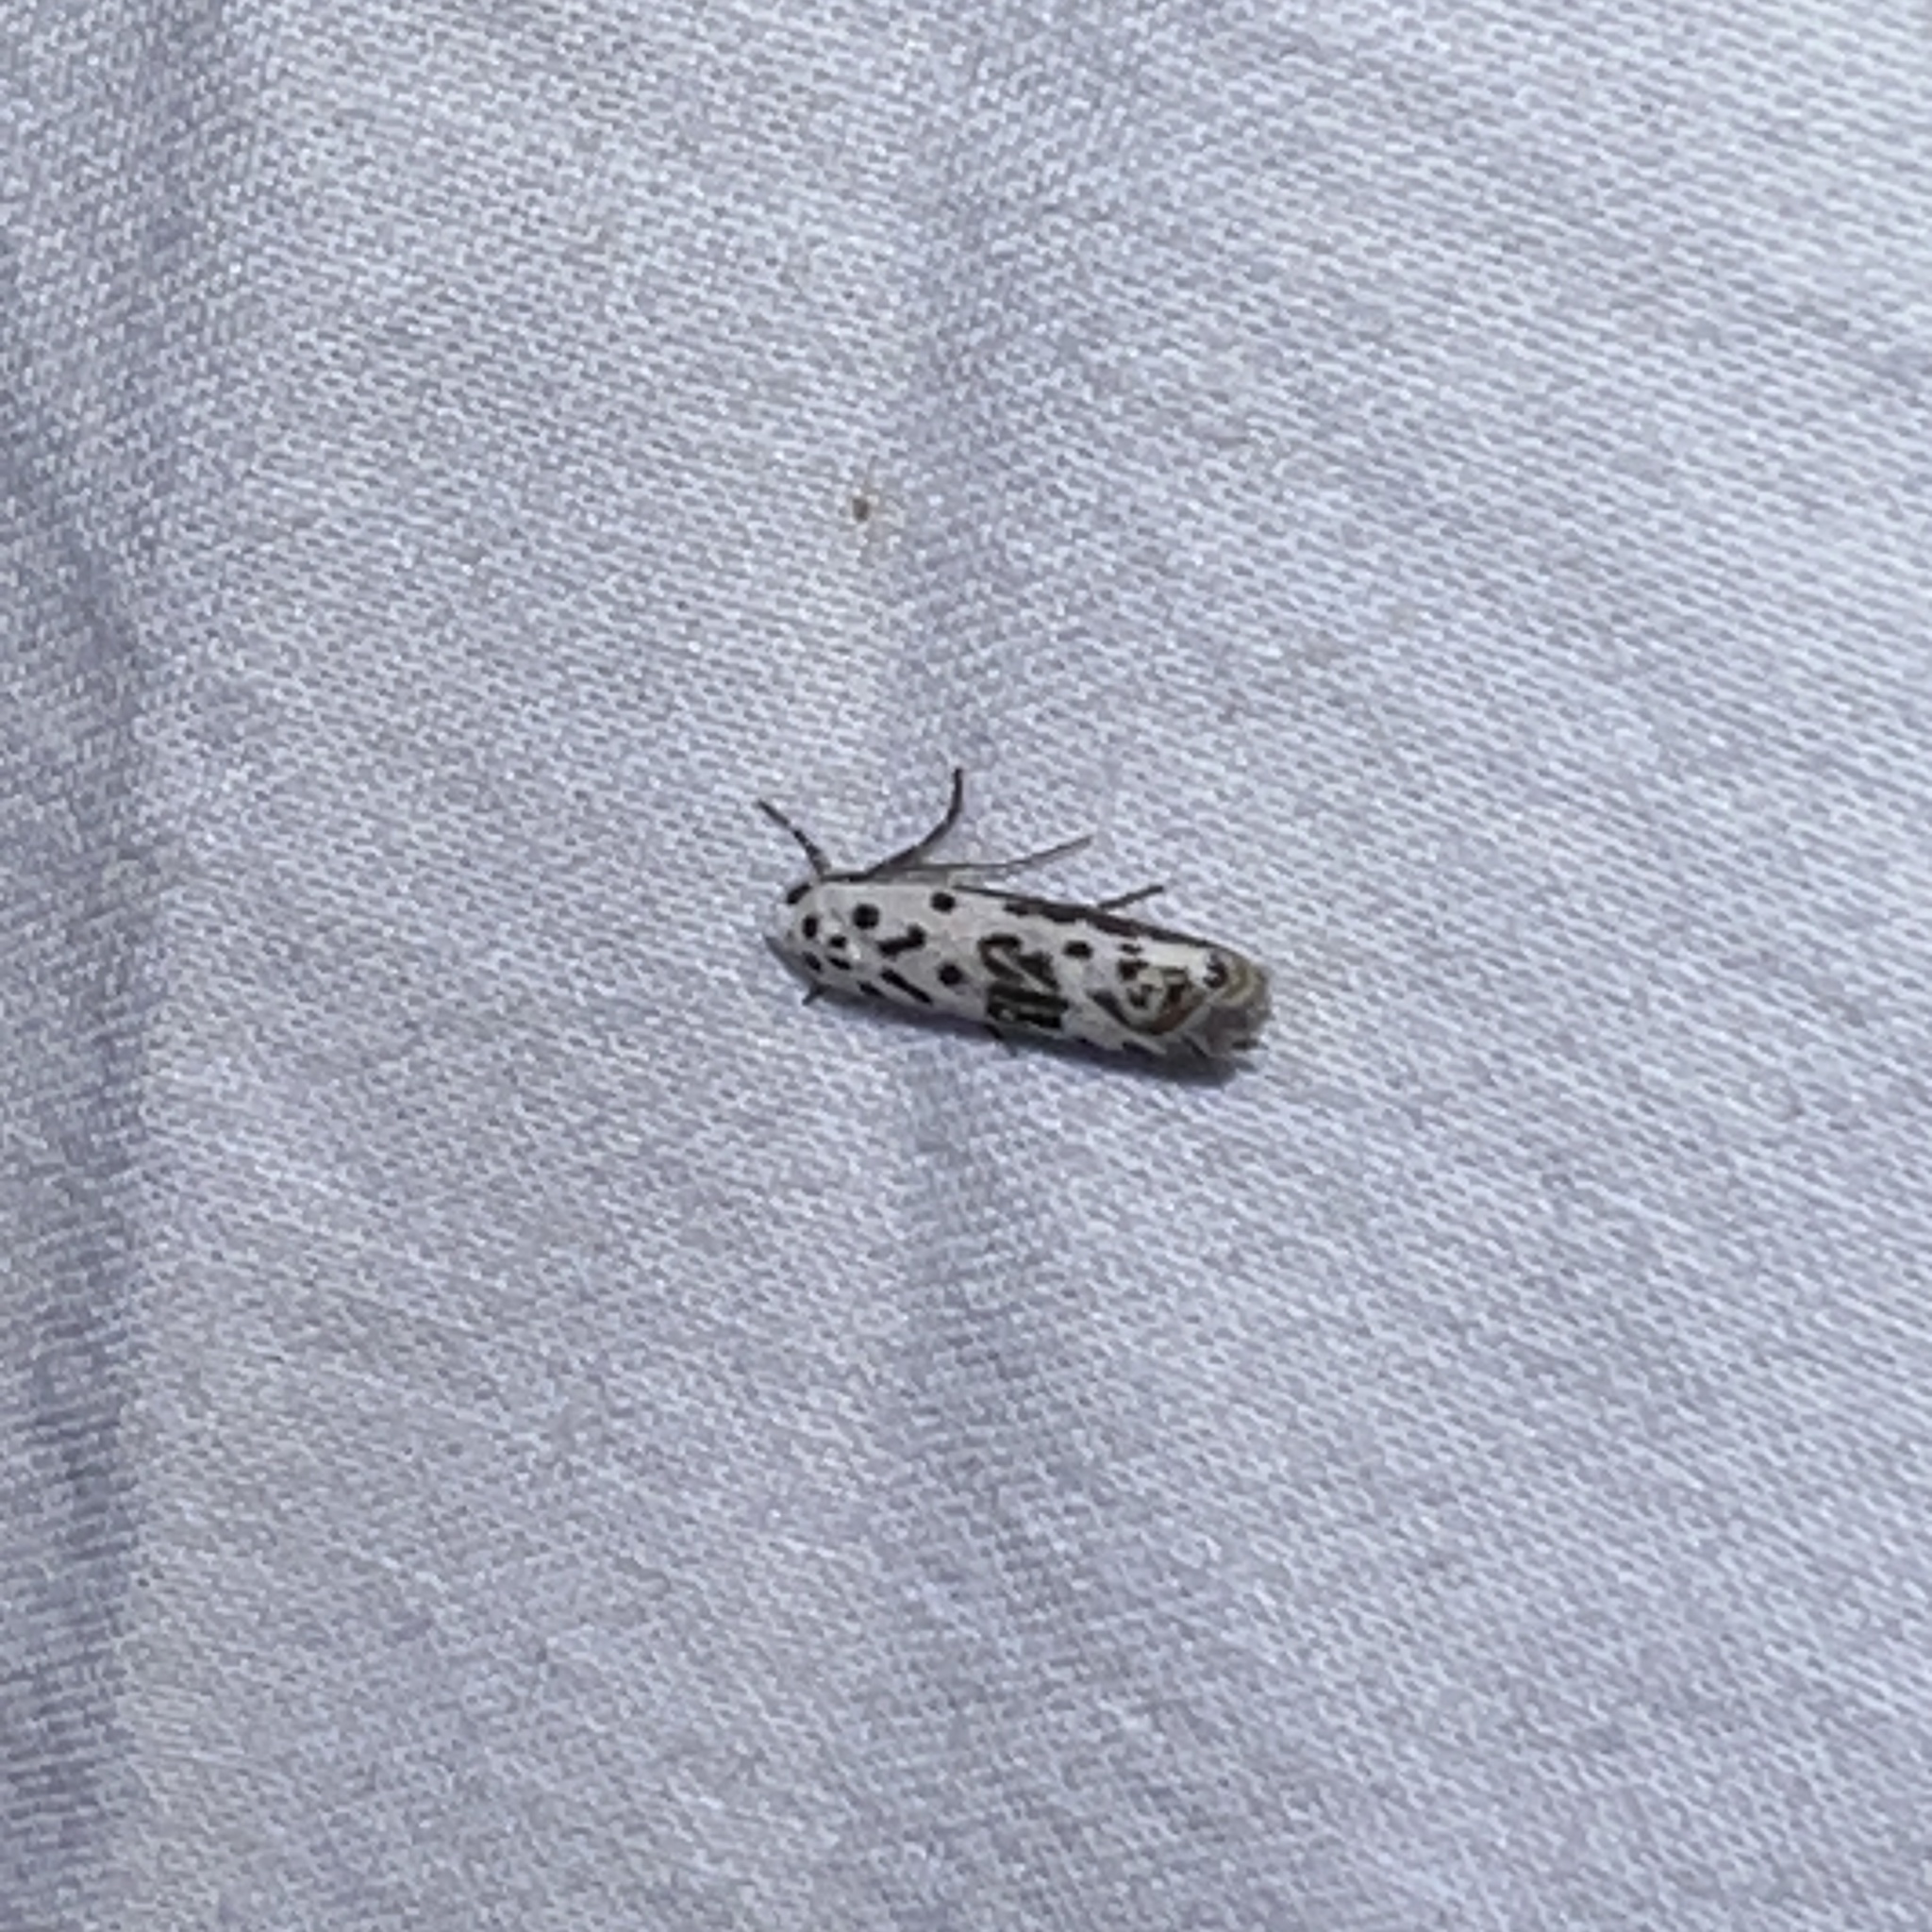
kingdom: Animalia
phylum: Arthropoda
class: Insecta
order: Lepidoptera
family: Ethmiidae
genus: Ethmia
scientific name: Ethmia bittenella
